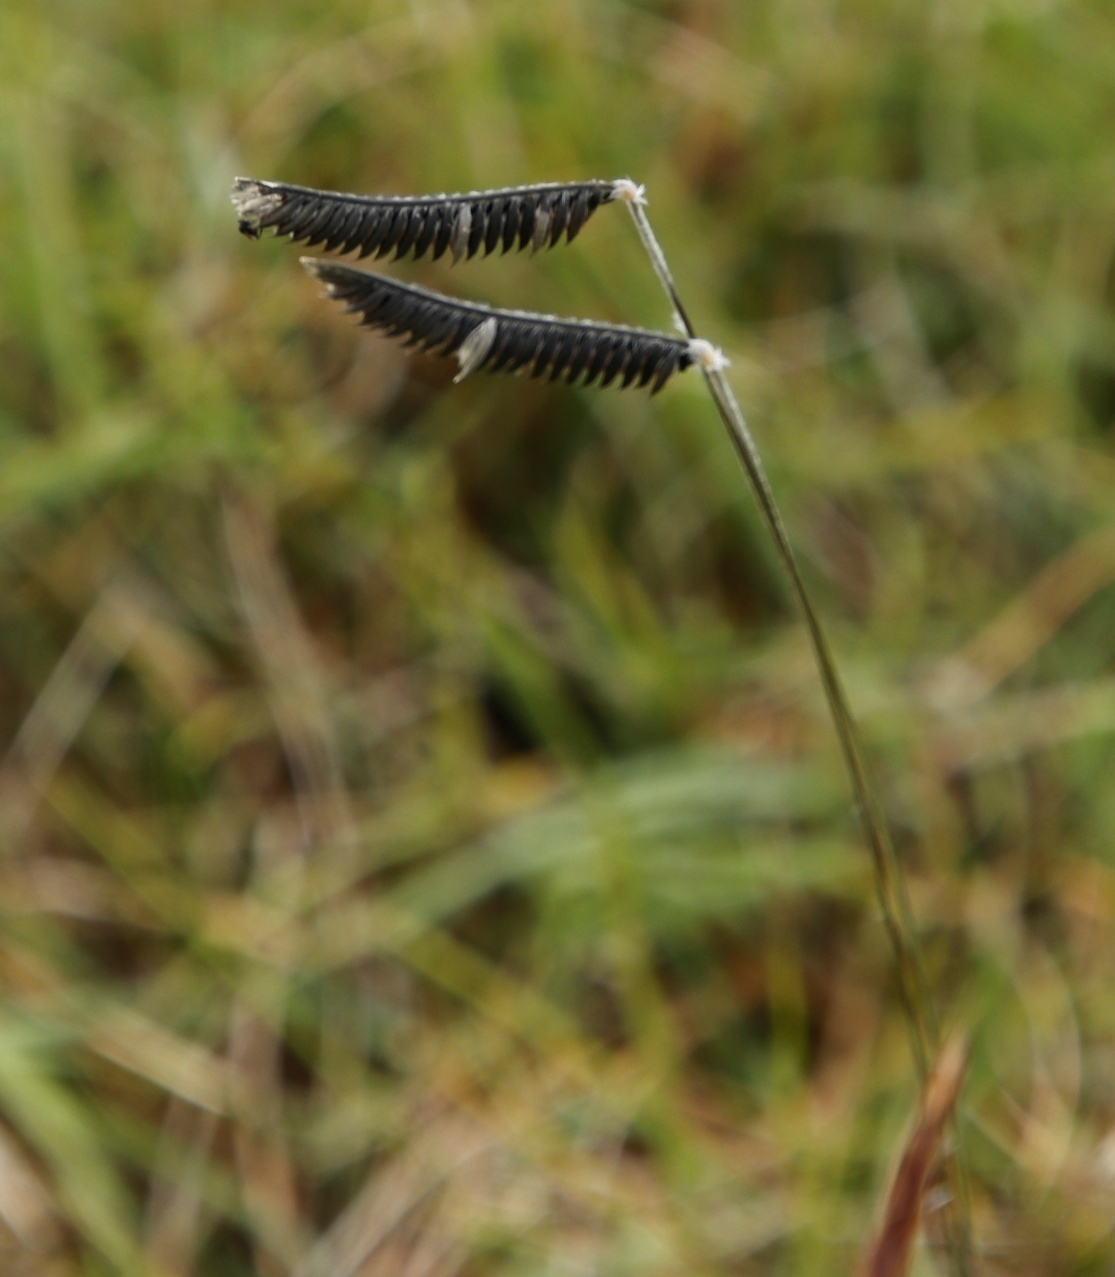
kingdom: Plantae
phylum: Tracheophyta
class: Liliopsida
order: Poales
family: Poaceae
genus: Harpochloa
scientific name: Harpochloa falx
